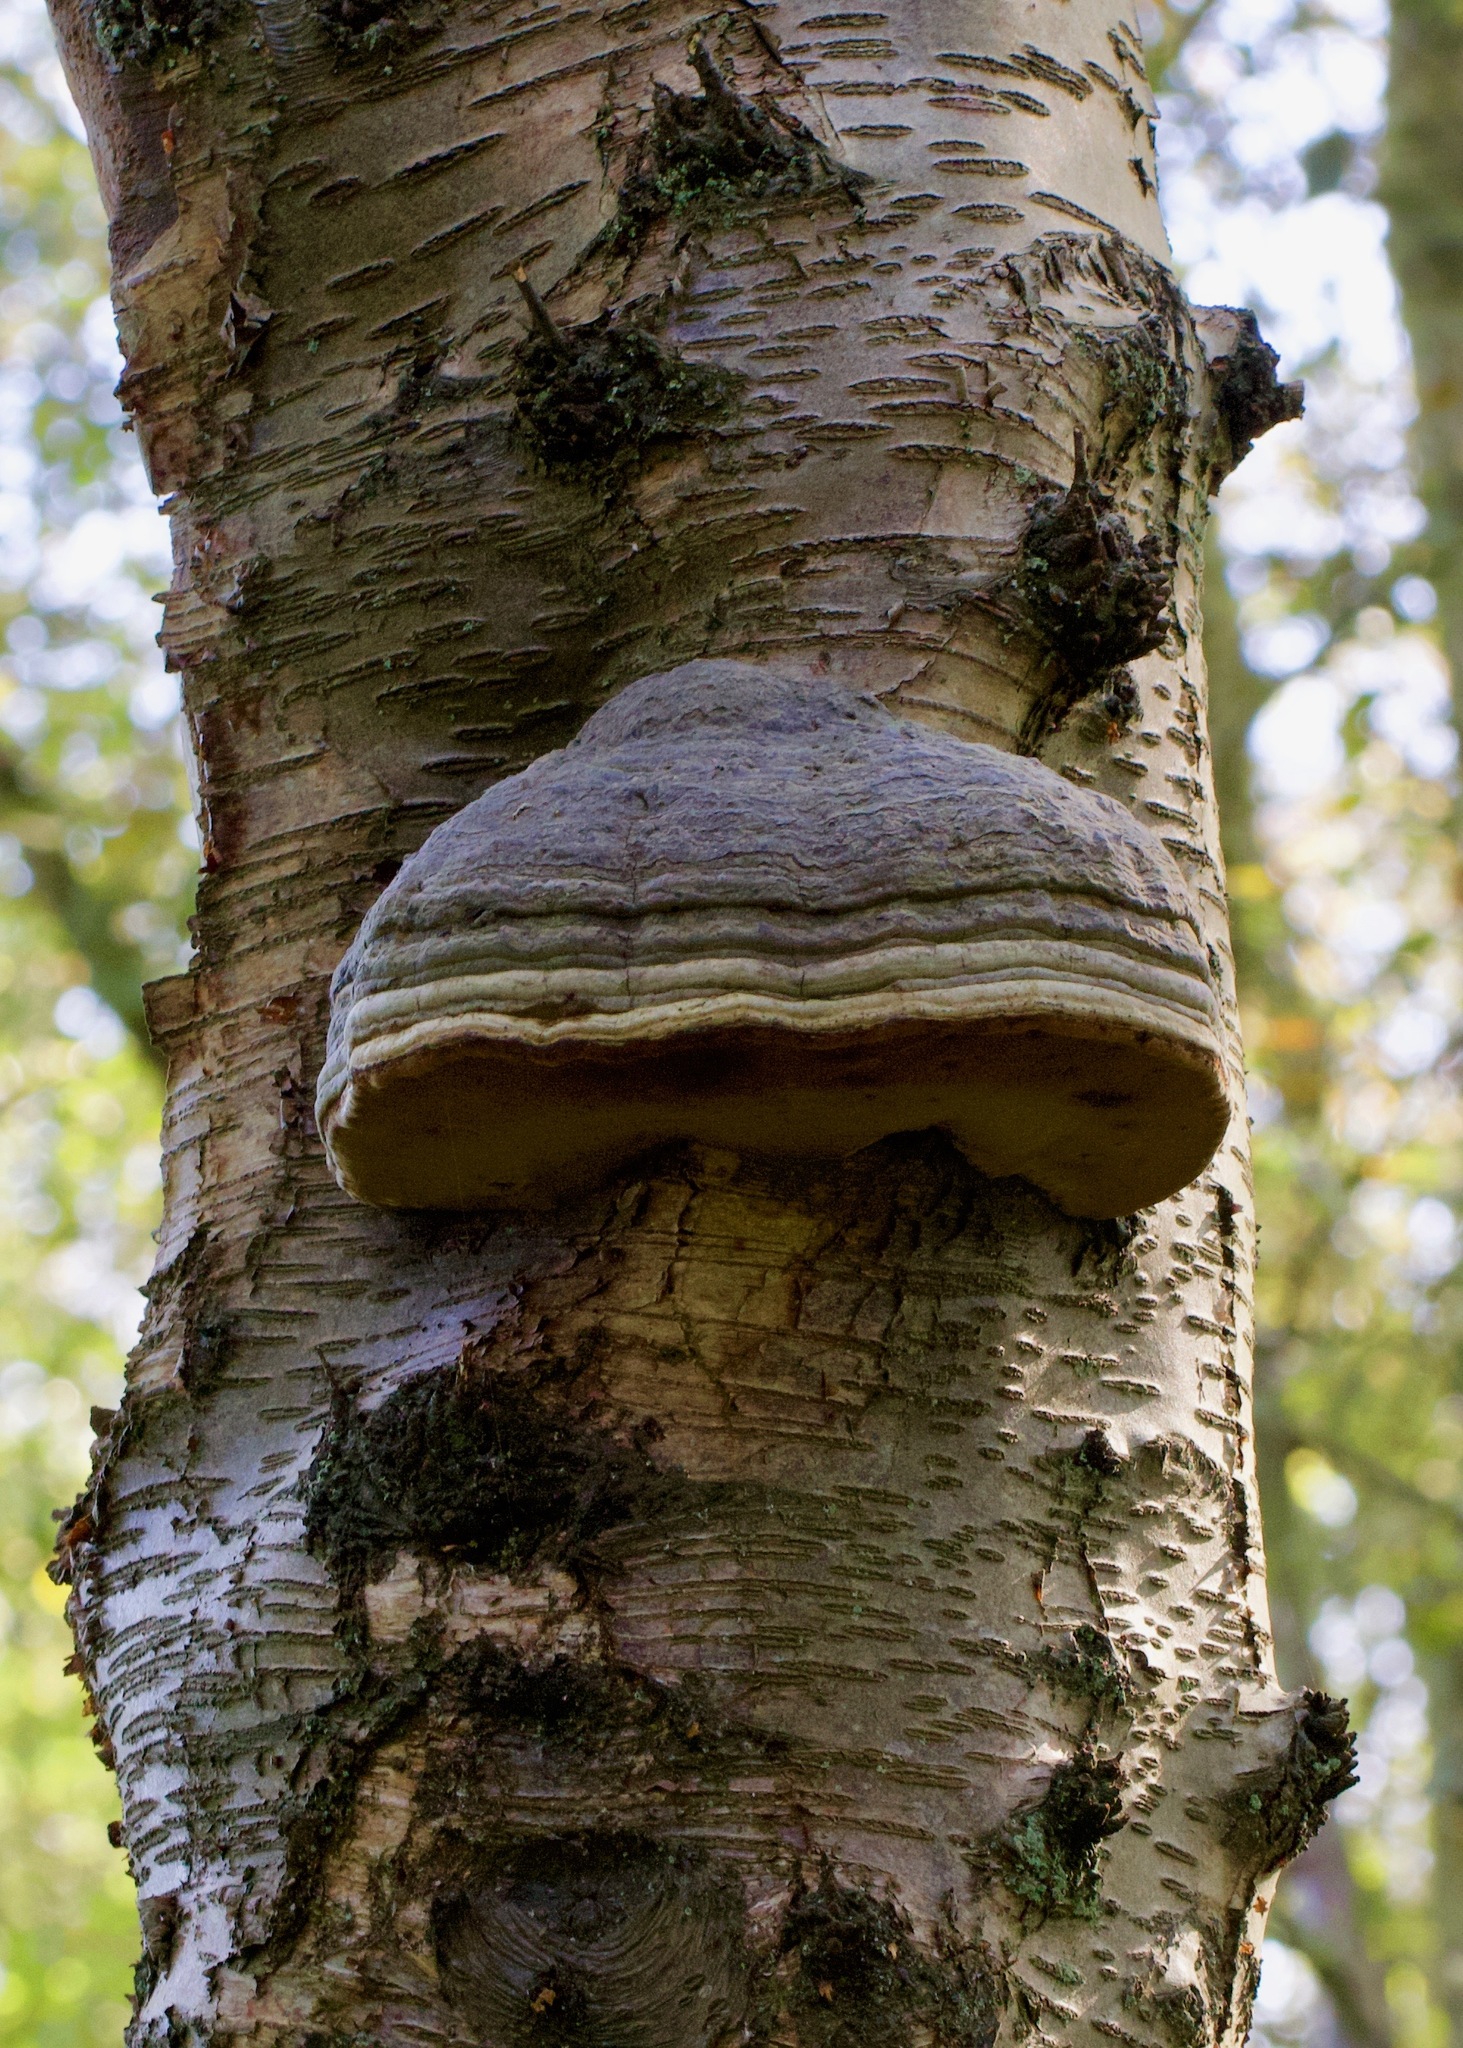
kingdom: Fungi
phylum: Basidiomycota
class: Agaricomycetes
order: Polyporales
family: Polyporaceae
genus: Fomes
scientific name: Fomes fomentarius
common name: Hoof fungus
